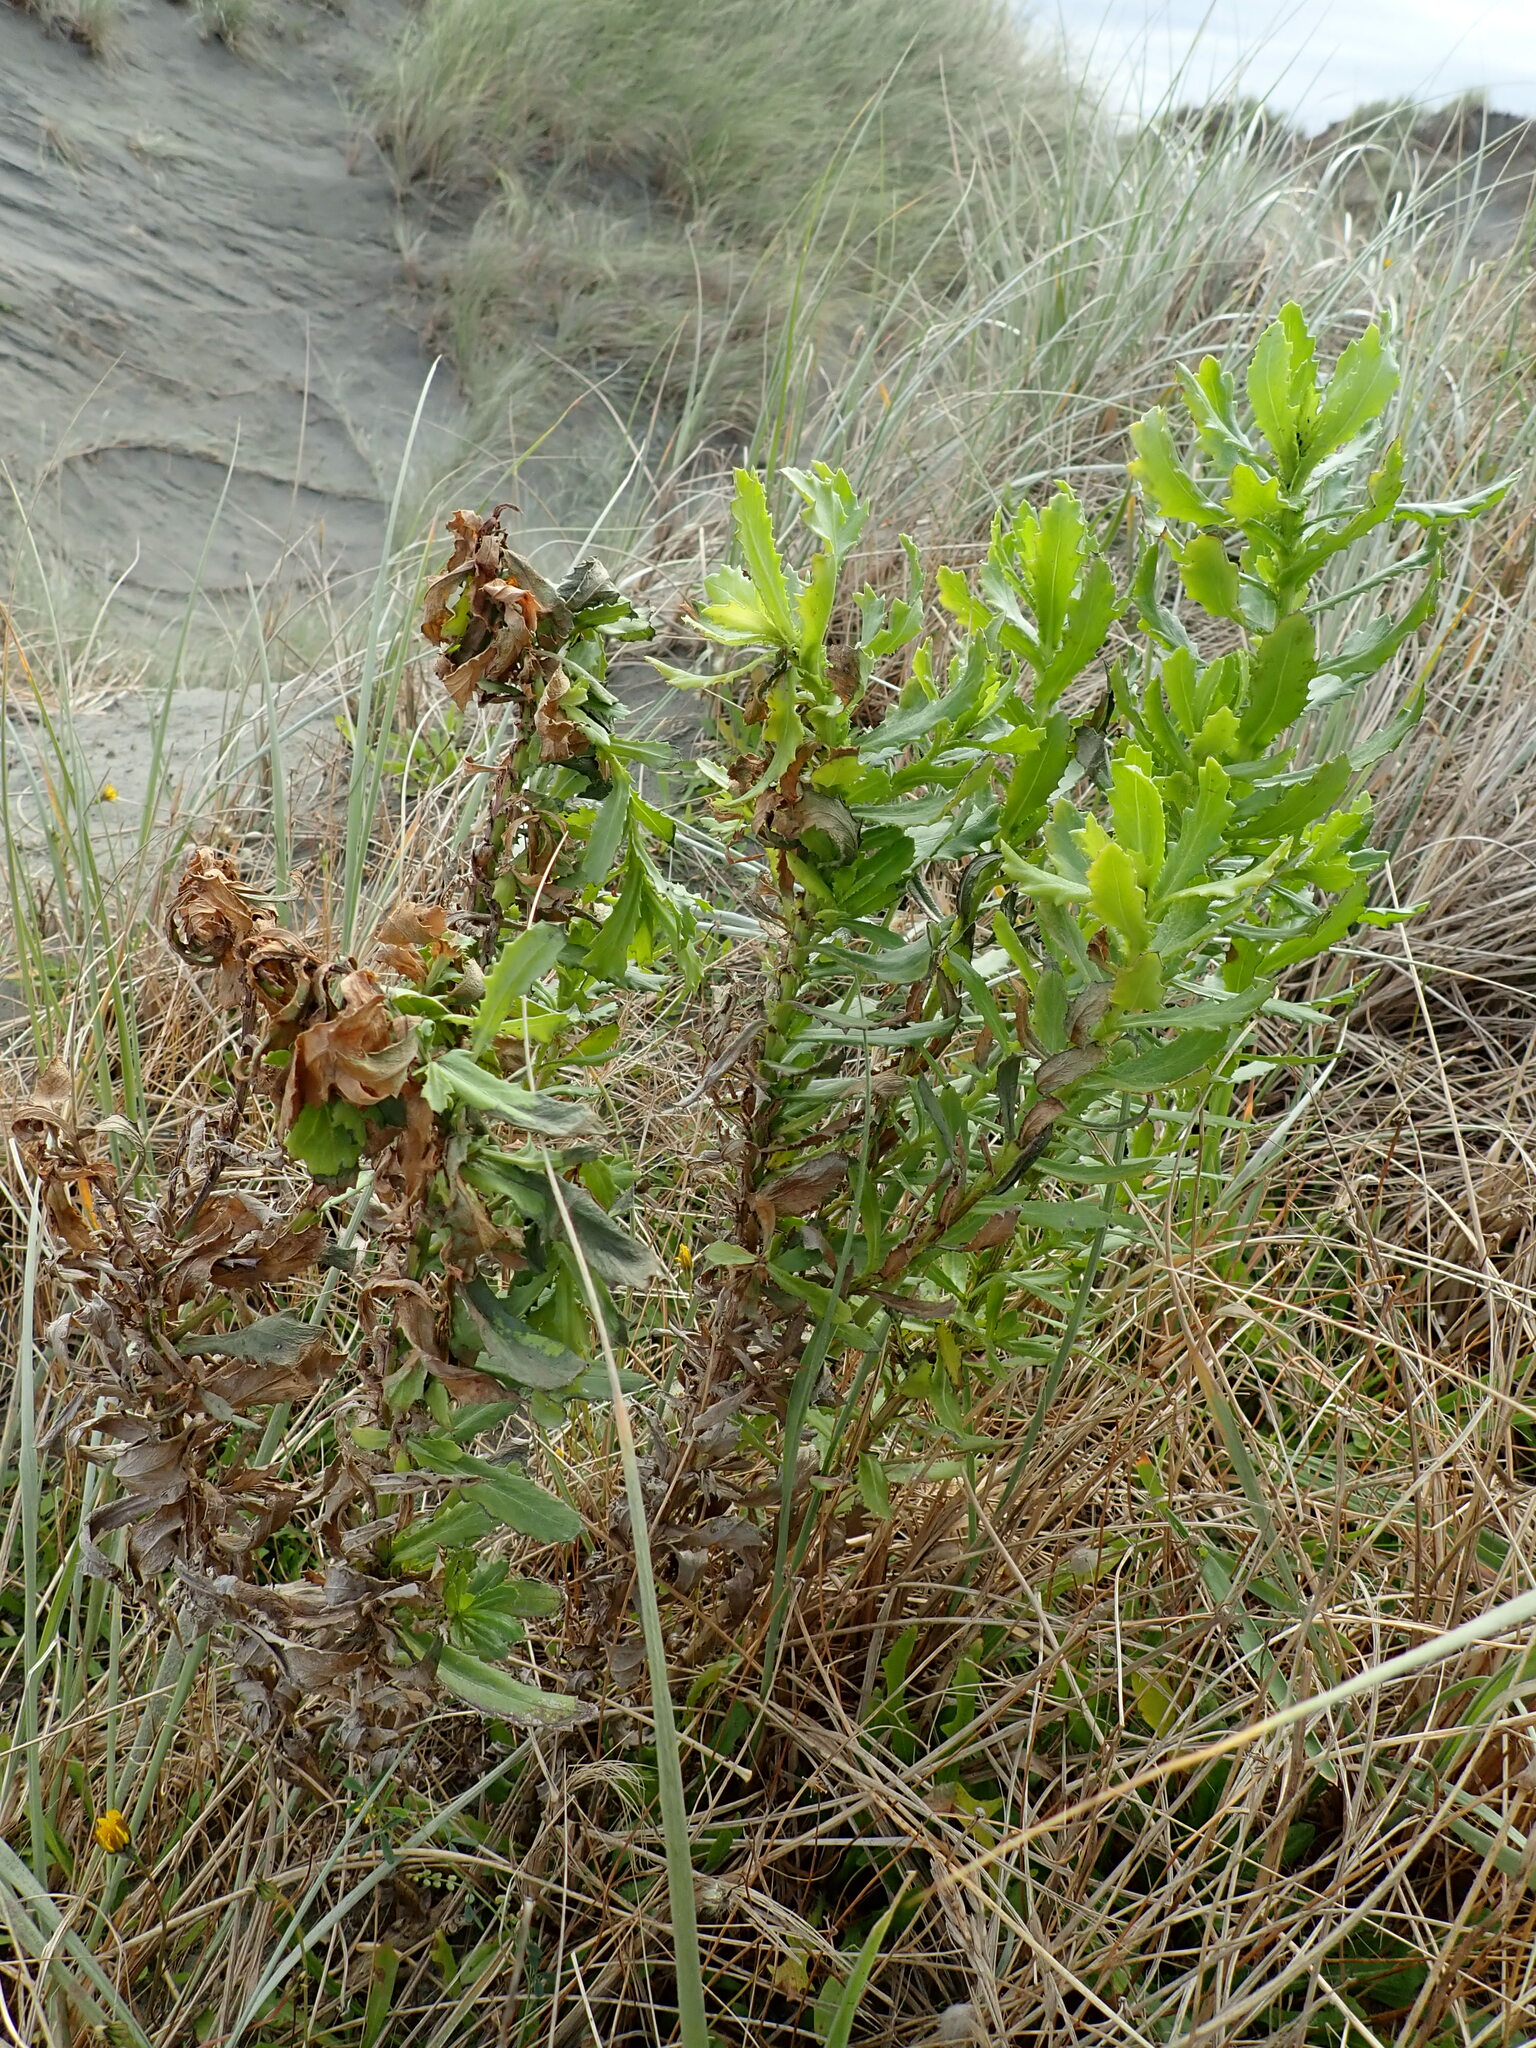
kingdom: Plantae
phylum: Tracheophyta
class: Magnoliopsida
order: Asterales
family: Asteraceae
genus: Senecio
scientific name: Senecio glastifolius
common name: Woad-leaved ragwort
